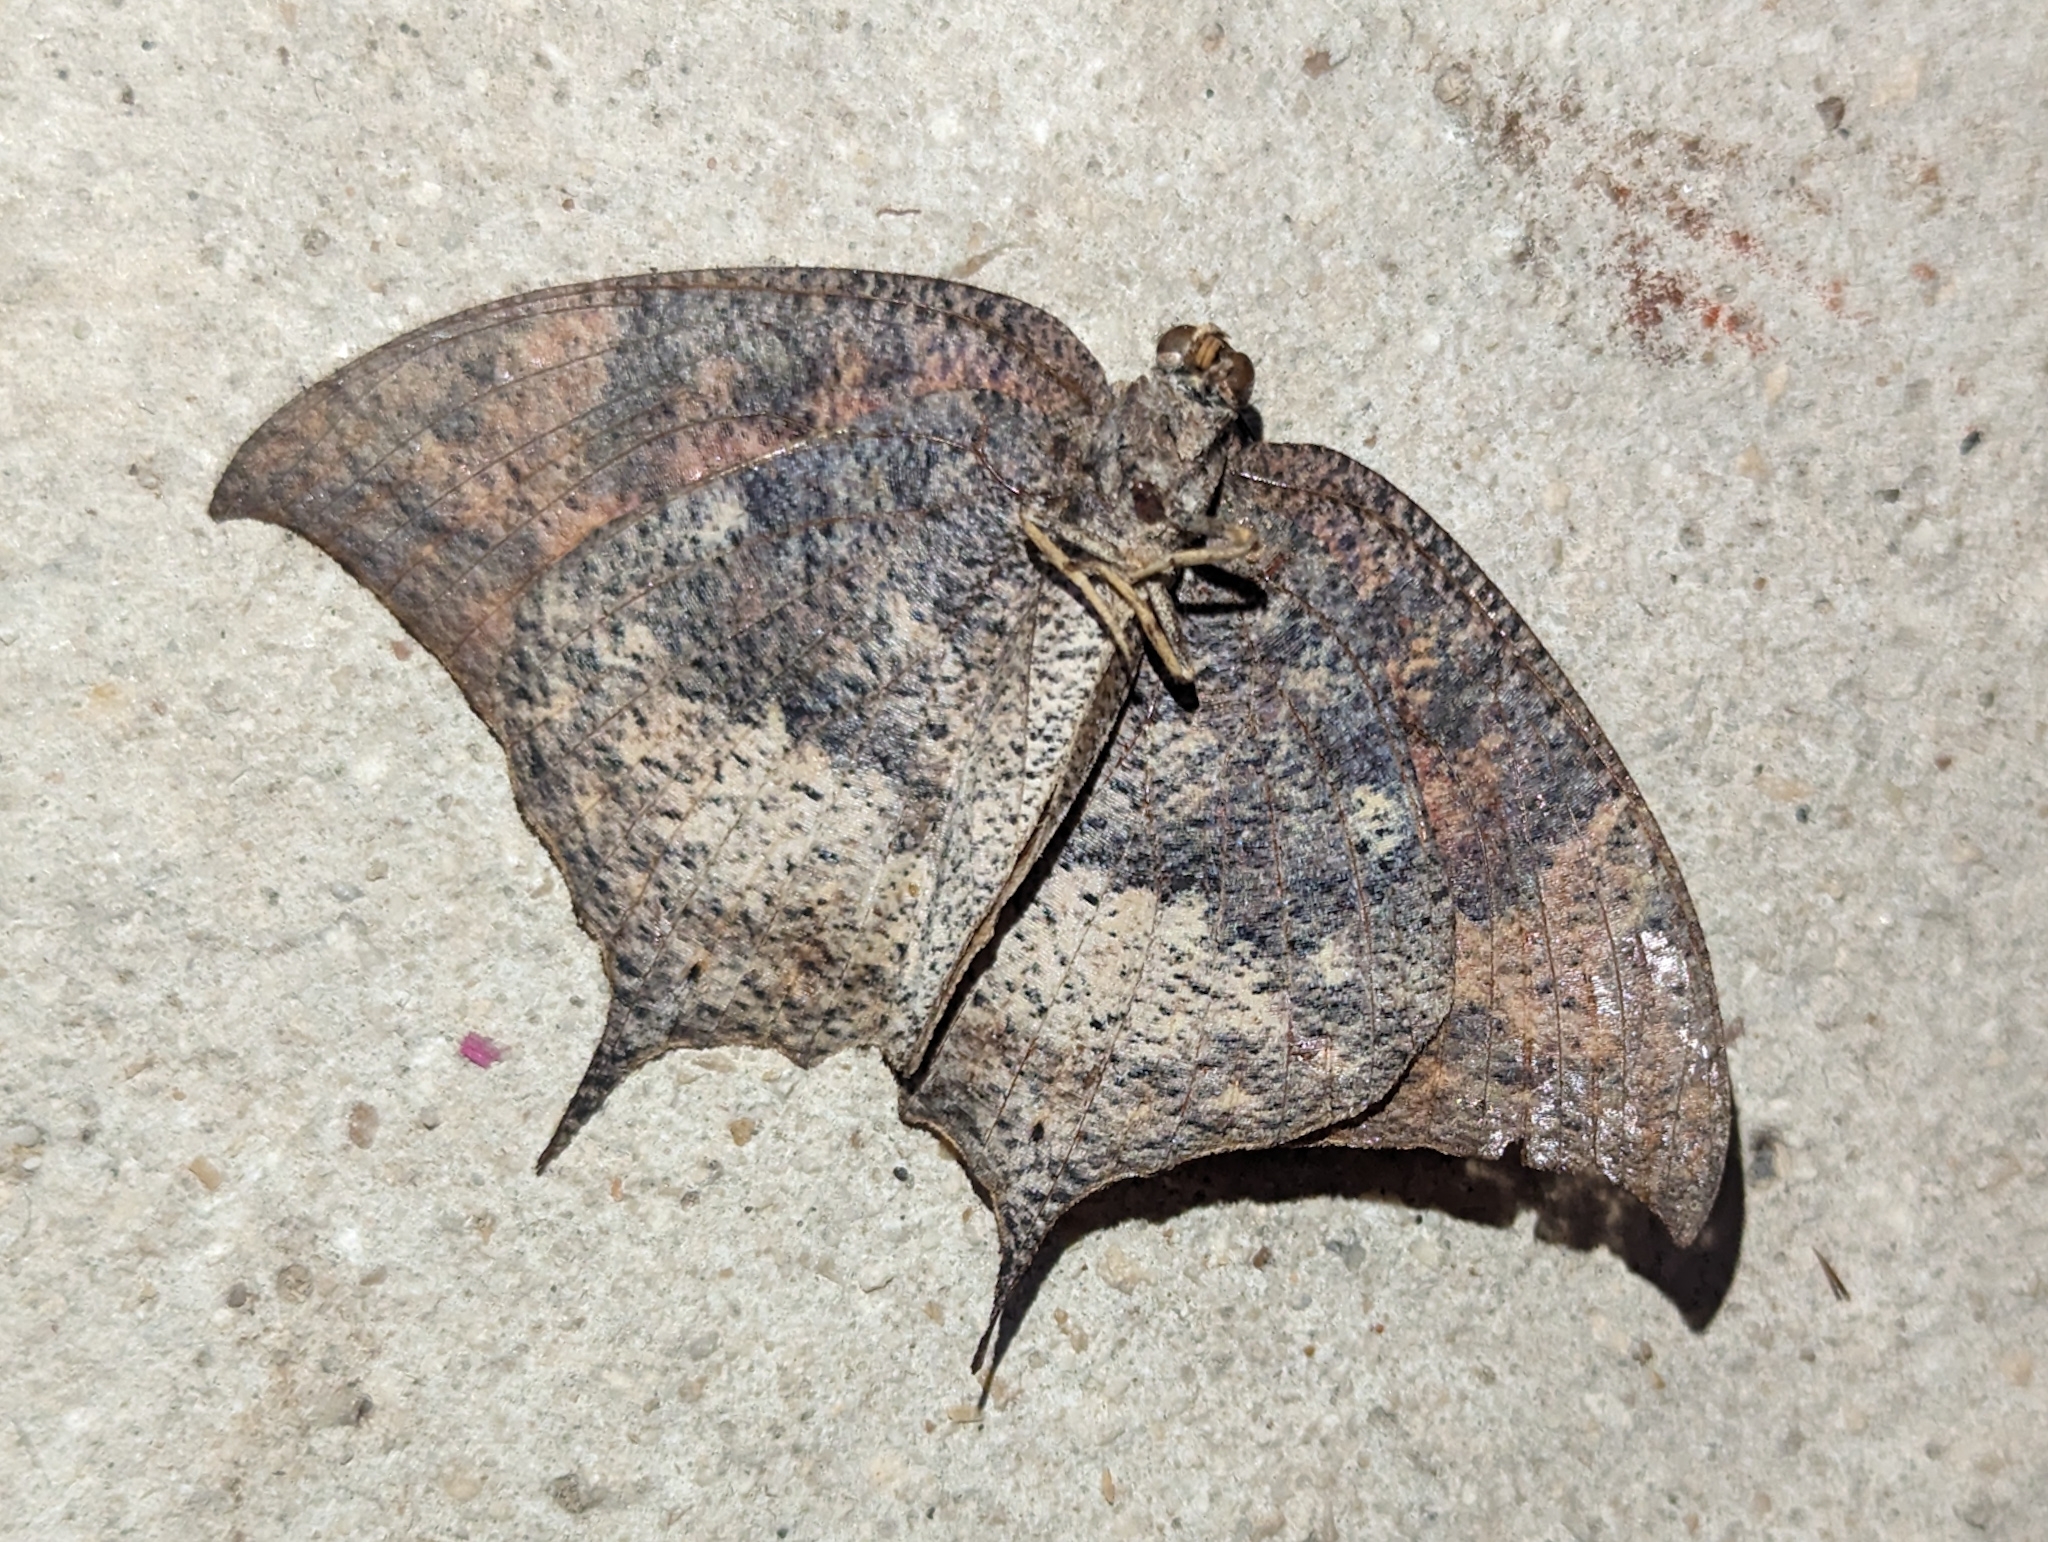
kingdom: Animalia
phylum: Arthropoda
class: Insecta
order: Lepidoptera
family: Nymphalidae
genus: Anaea
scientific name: Anaea troglodyta
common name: Florida leafwing
